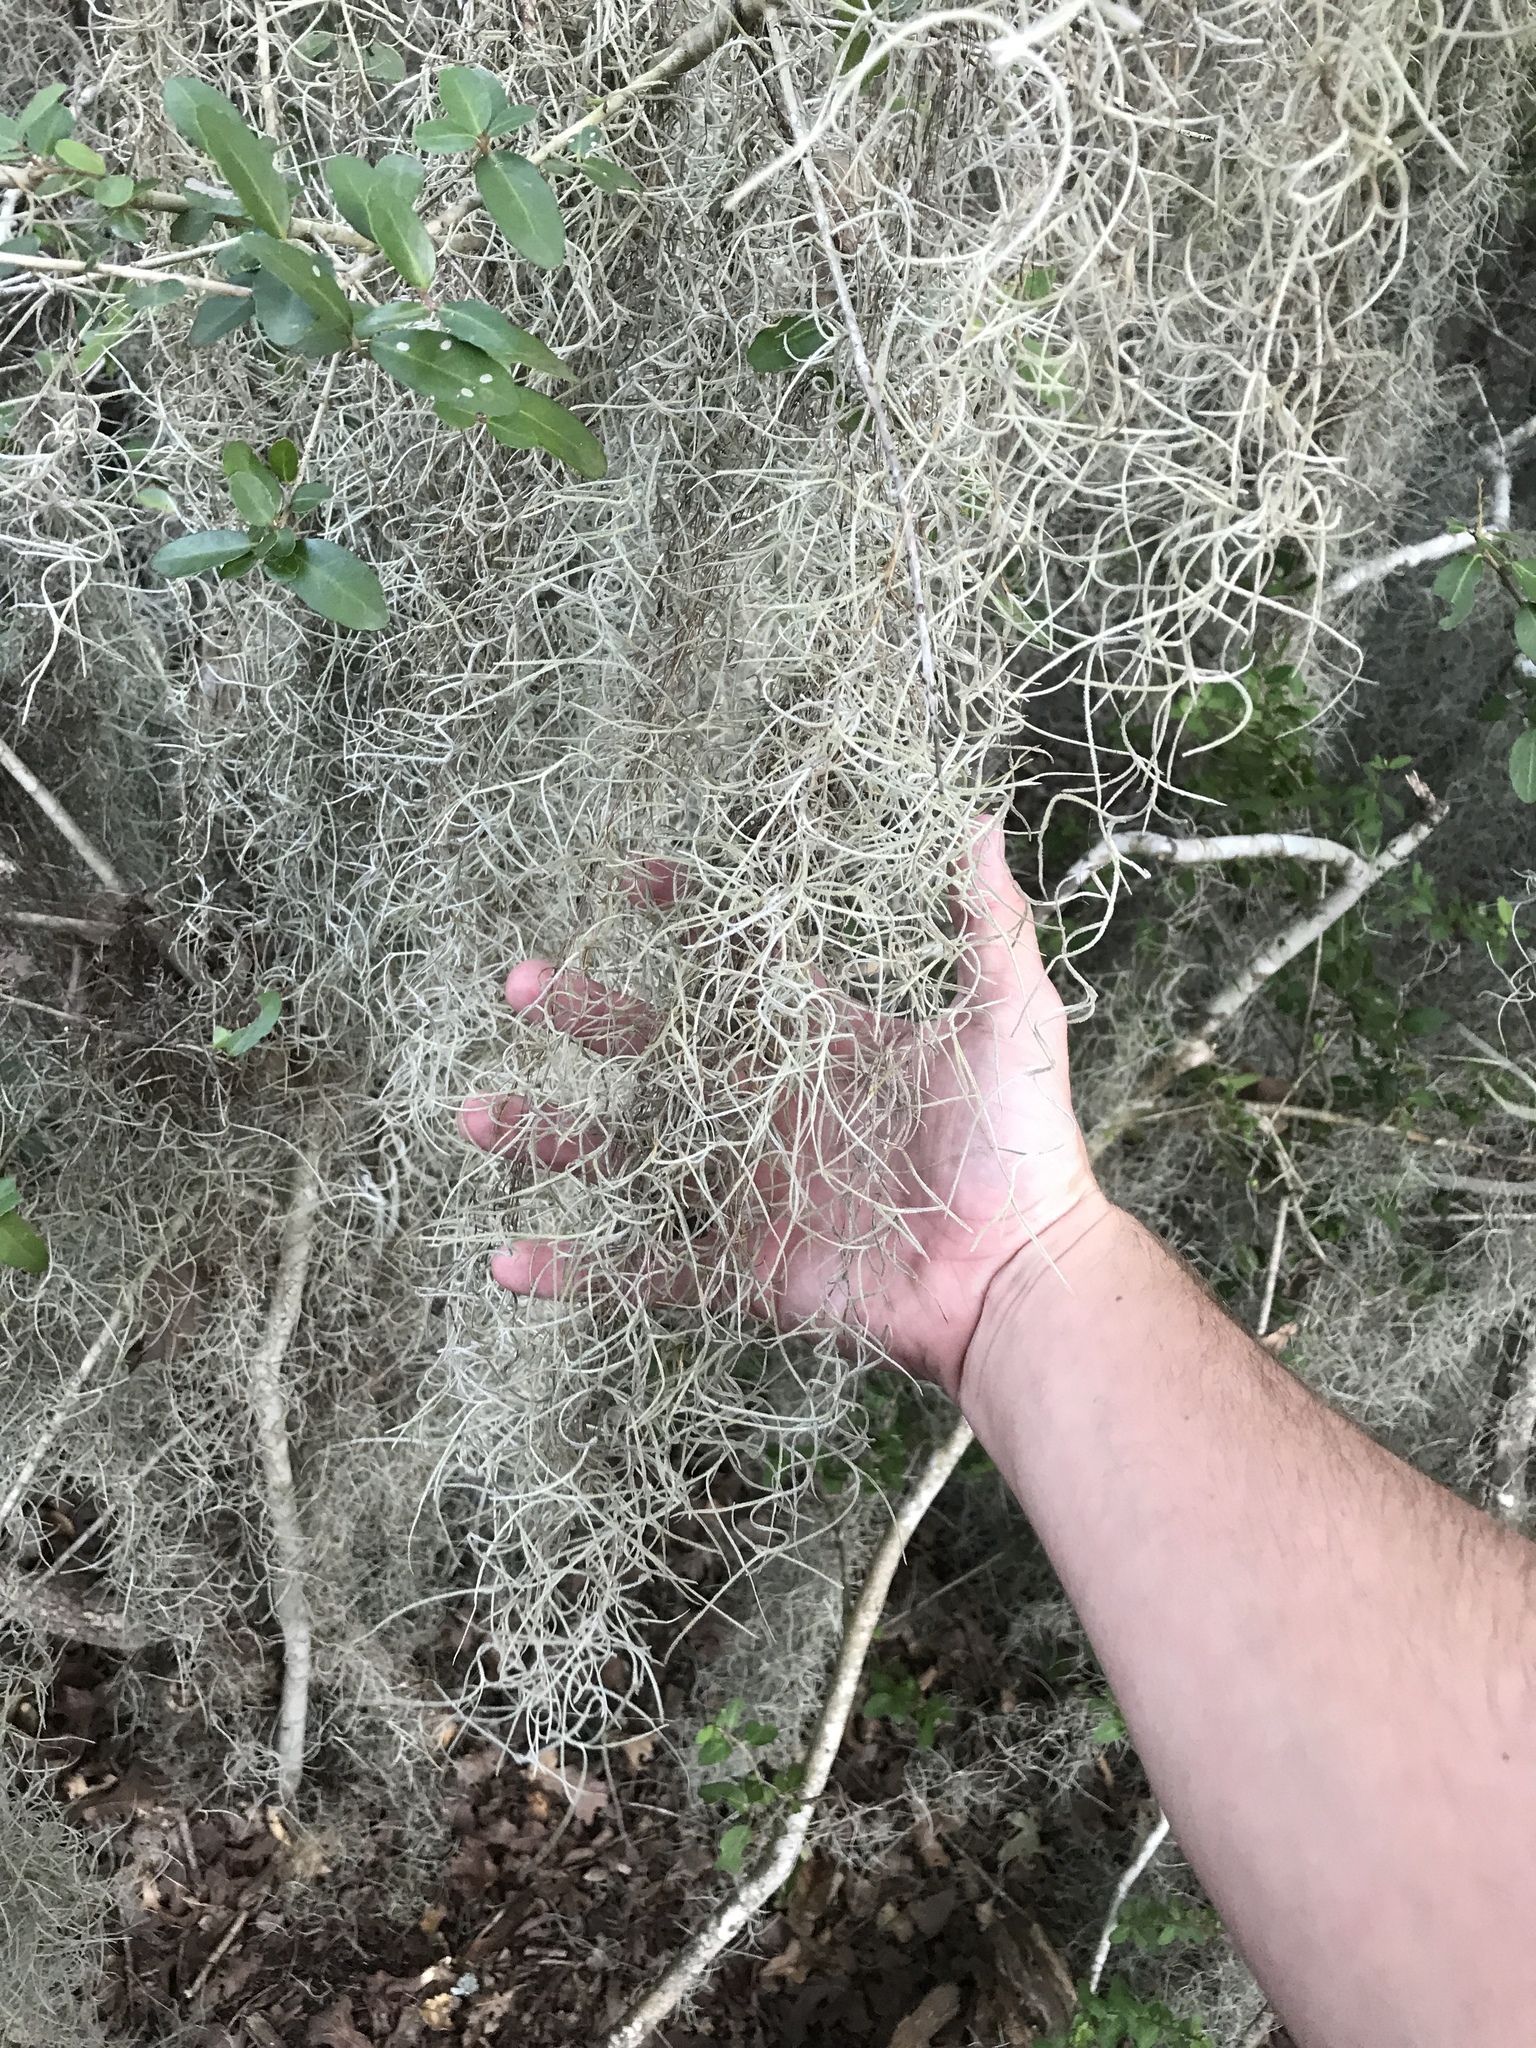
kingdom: Plantae
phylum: Tracheophyta
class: Liliopsida
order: Poales
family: Bromeliaceae
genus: Tillandsia
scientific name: Tillandsia usneoides
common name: Spanish moss
